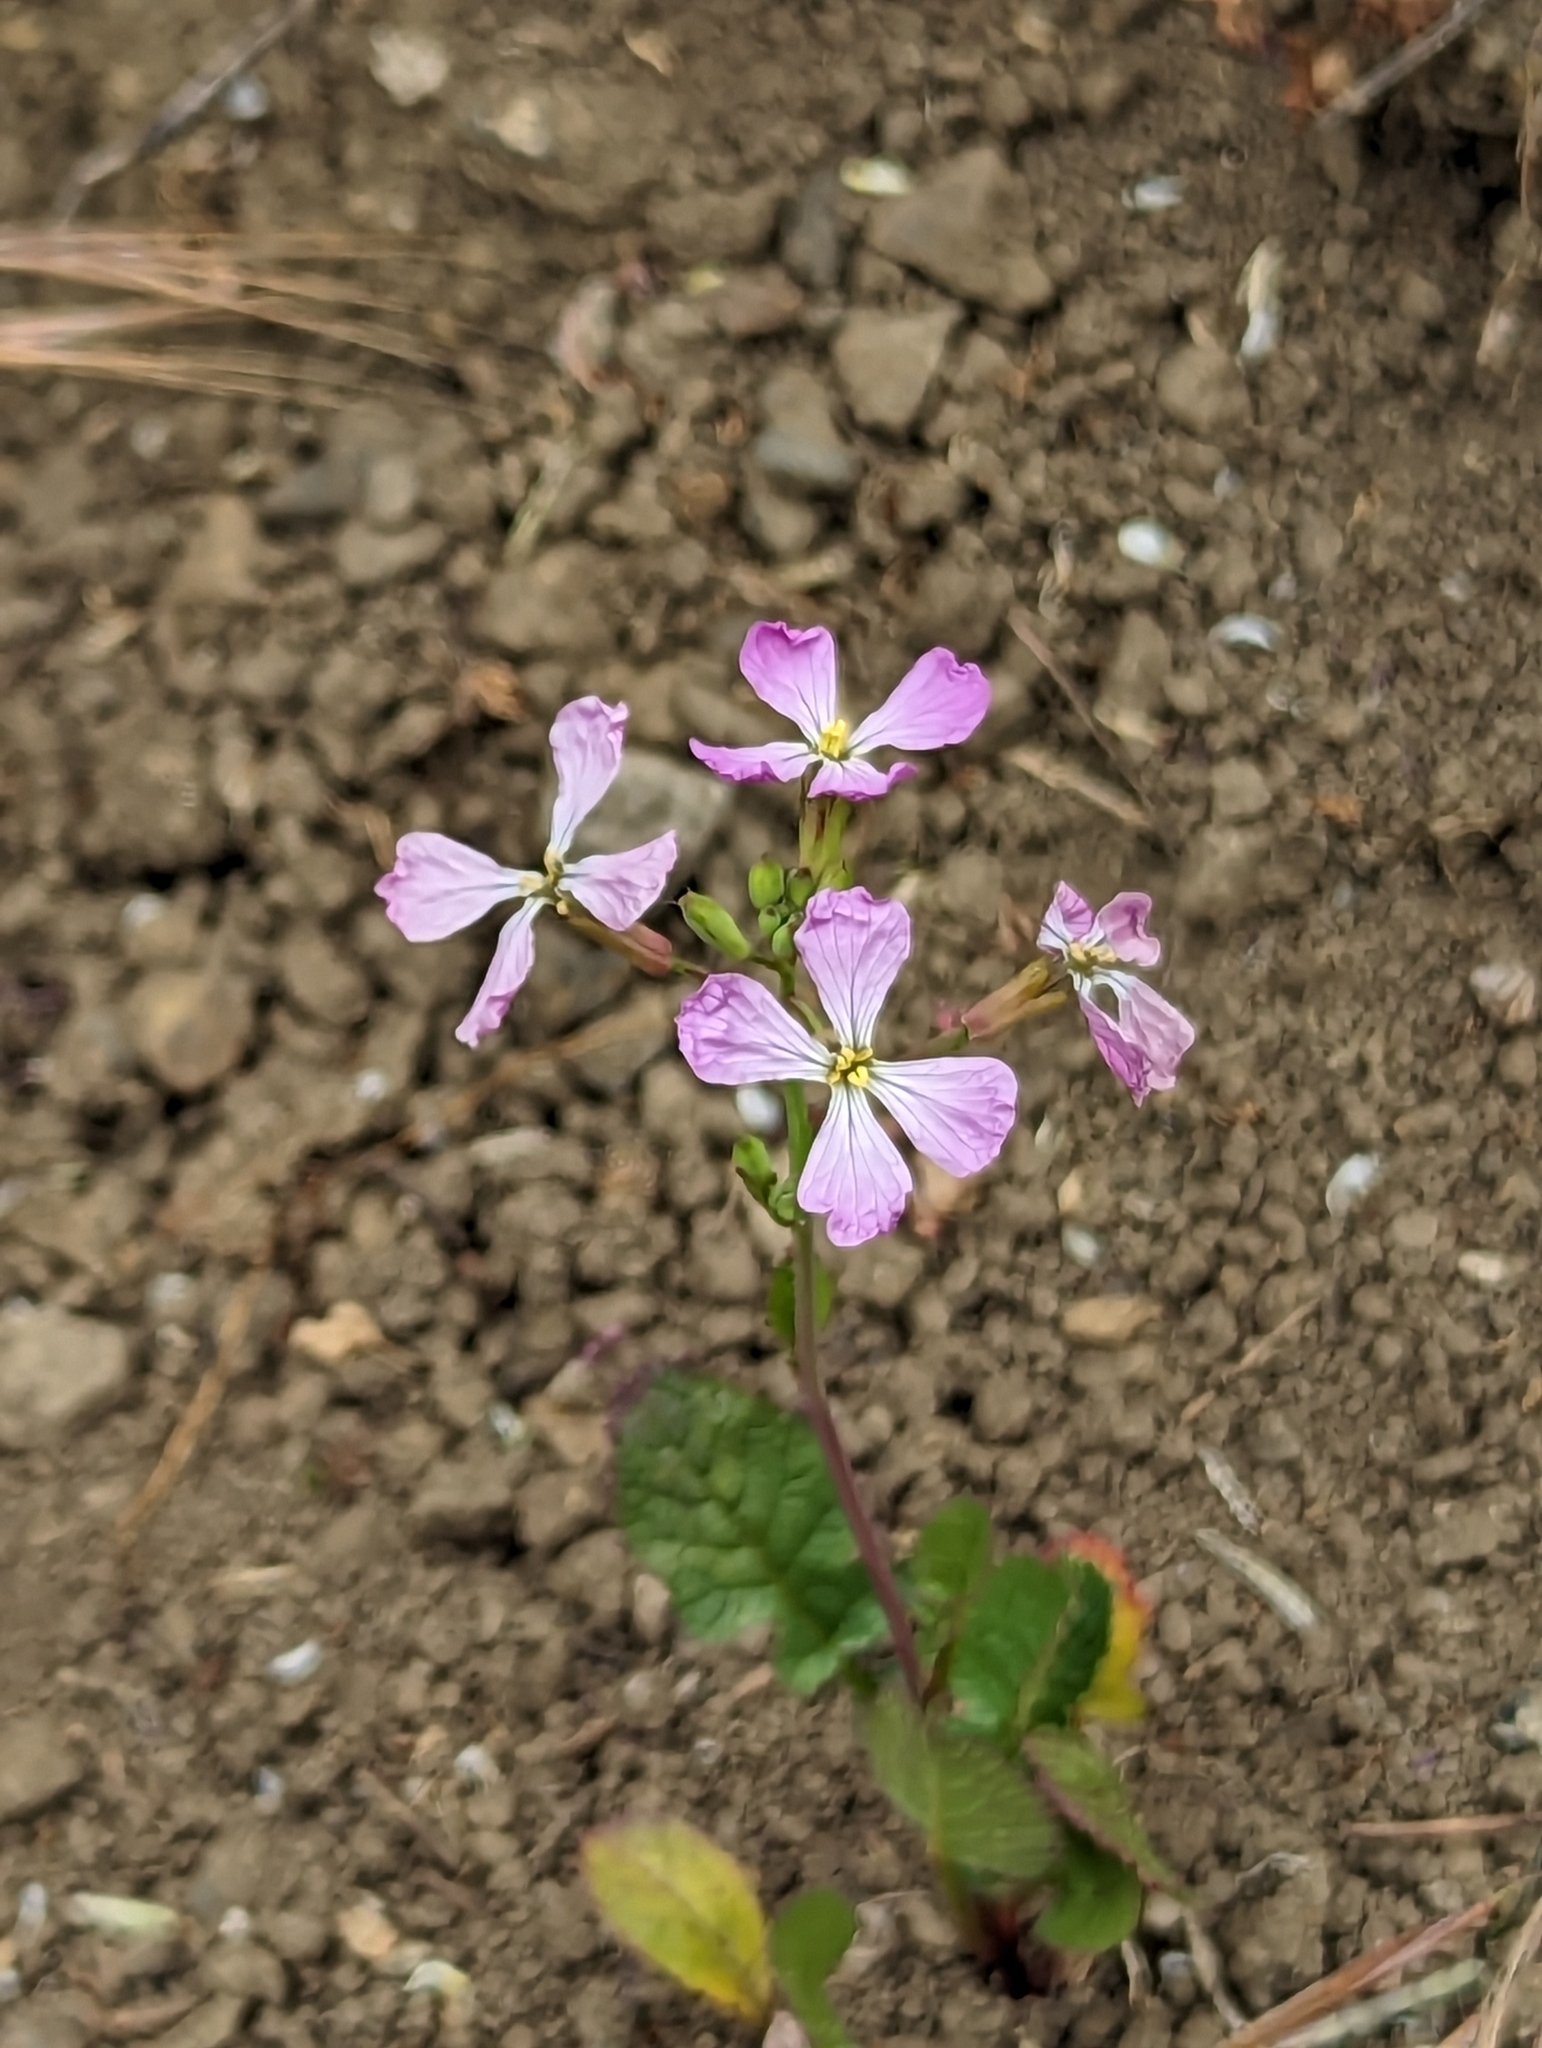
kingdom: Plantae
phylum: Tracheophyta
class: Magnoliopsida
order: Brassicales
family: Brassicaceae
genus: Raphanus
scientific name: Raphanus sativus
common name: Cultivated radish
